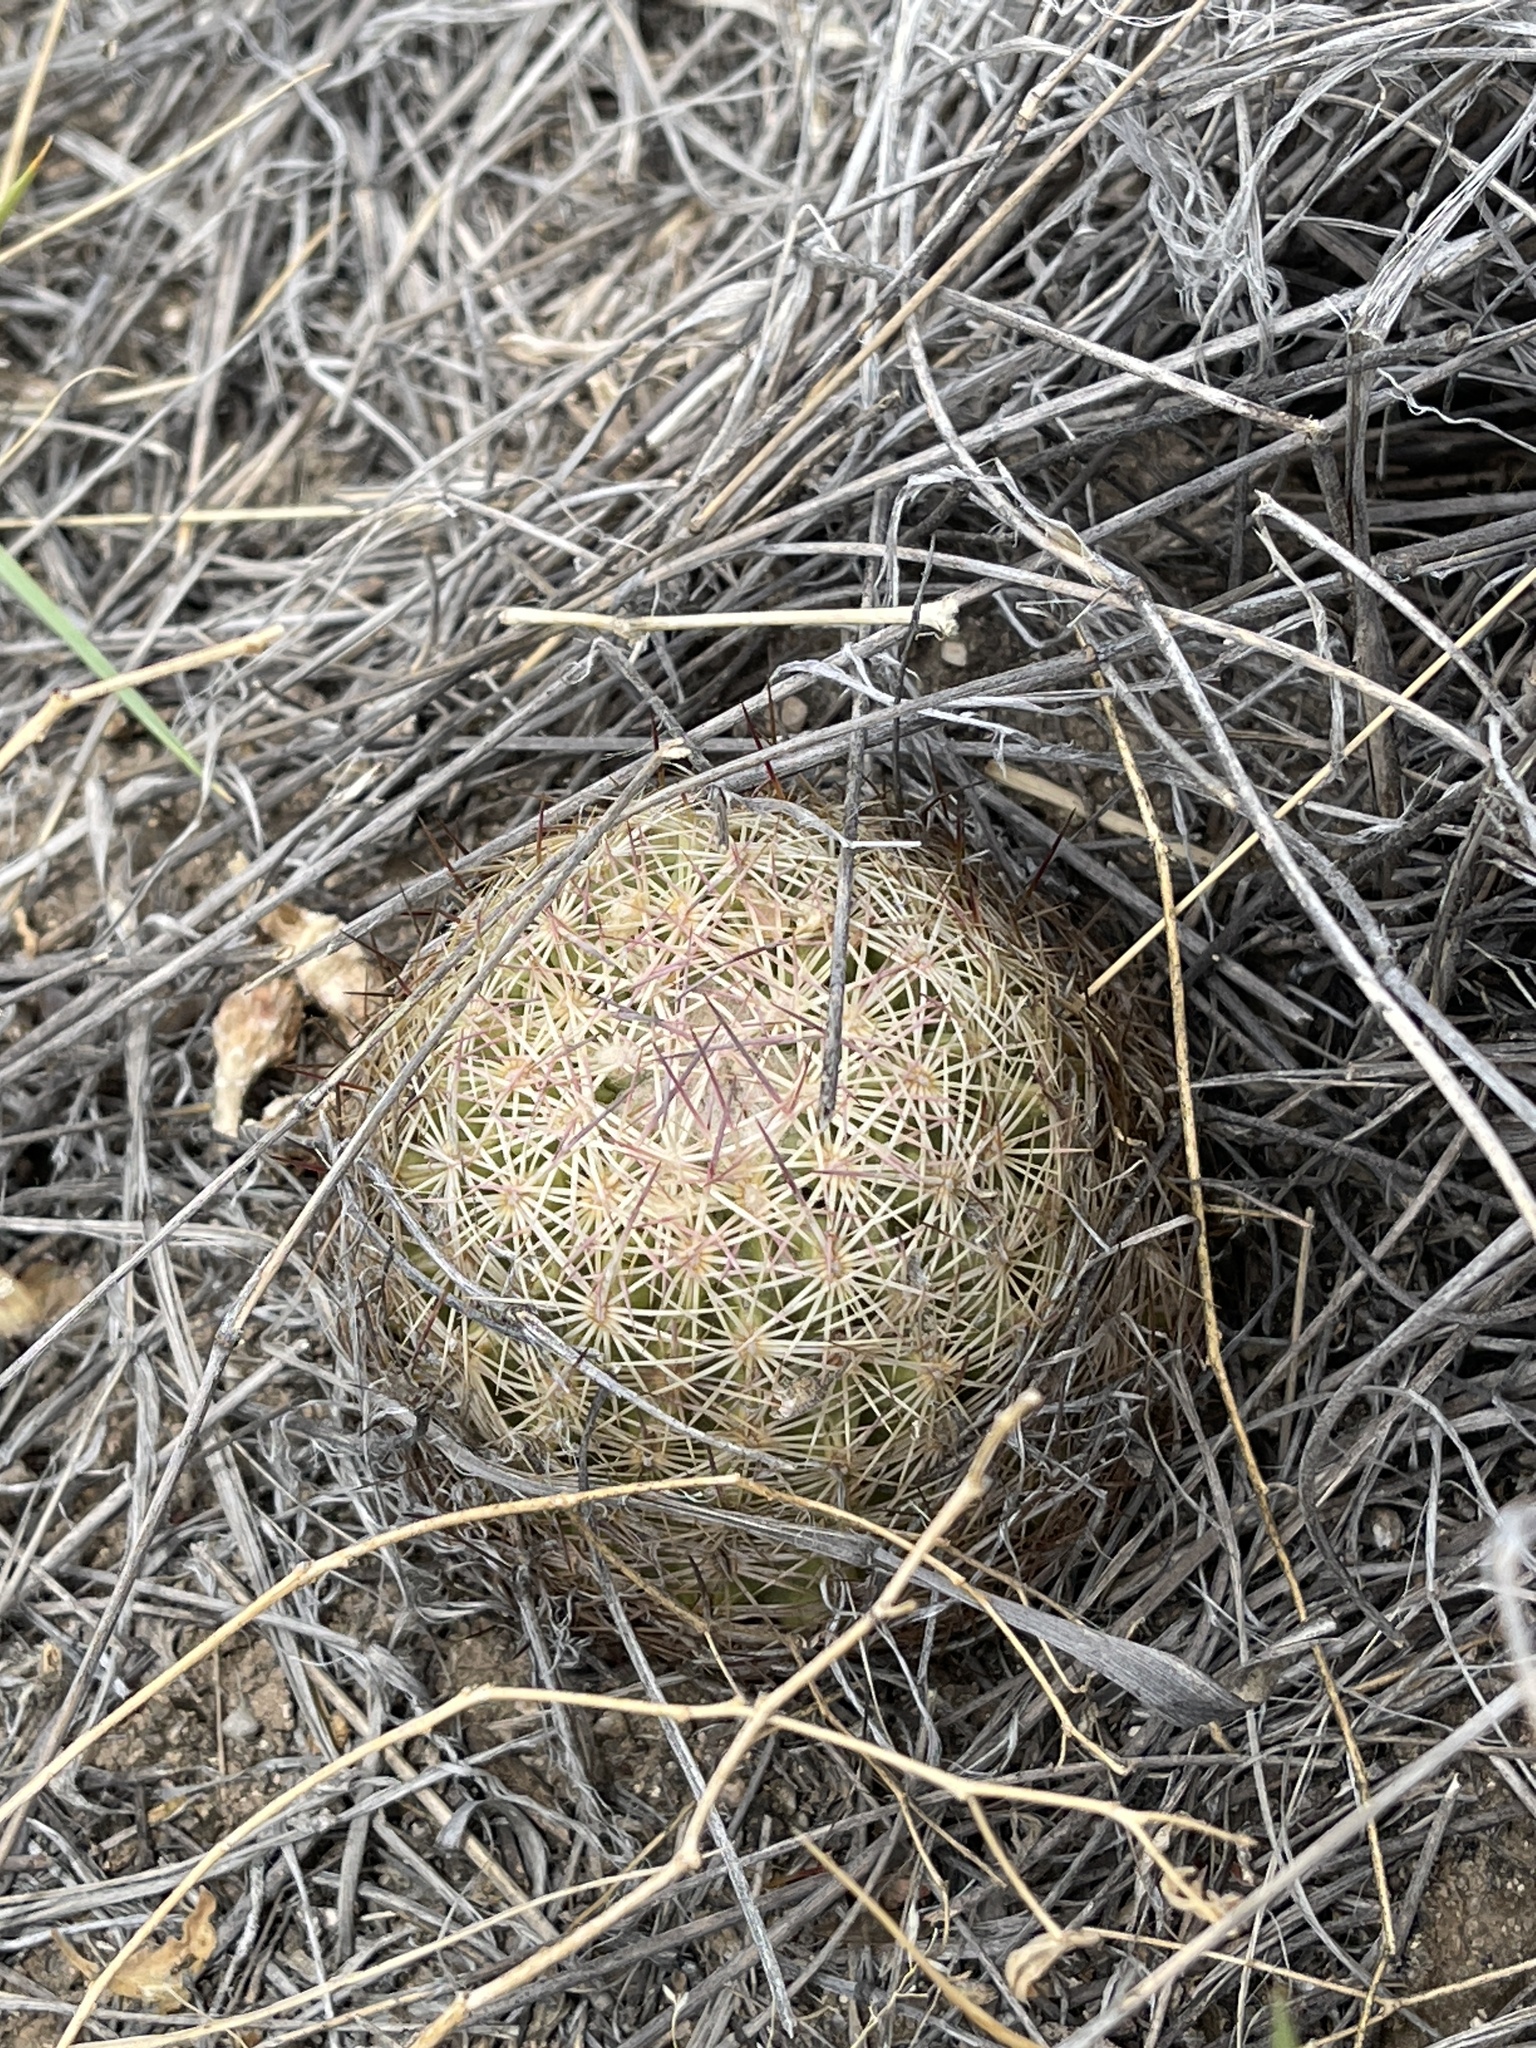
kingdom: Plantae
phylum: Tracheophyta
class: Magnoliopsida
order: Caryophyllales
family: Cactaceae
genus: Sclerocactus
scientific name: Sclerocactus intertextus
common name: White fish-hook cactus
